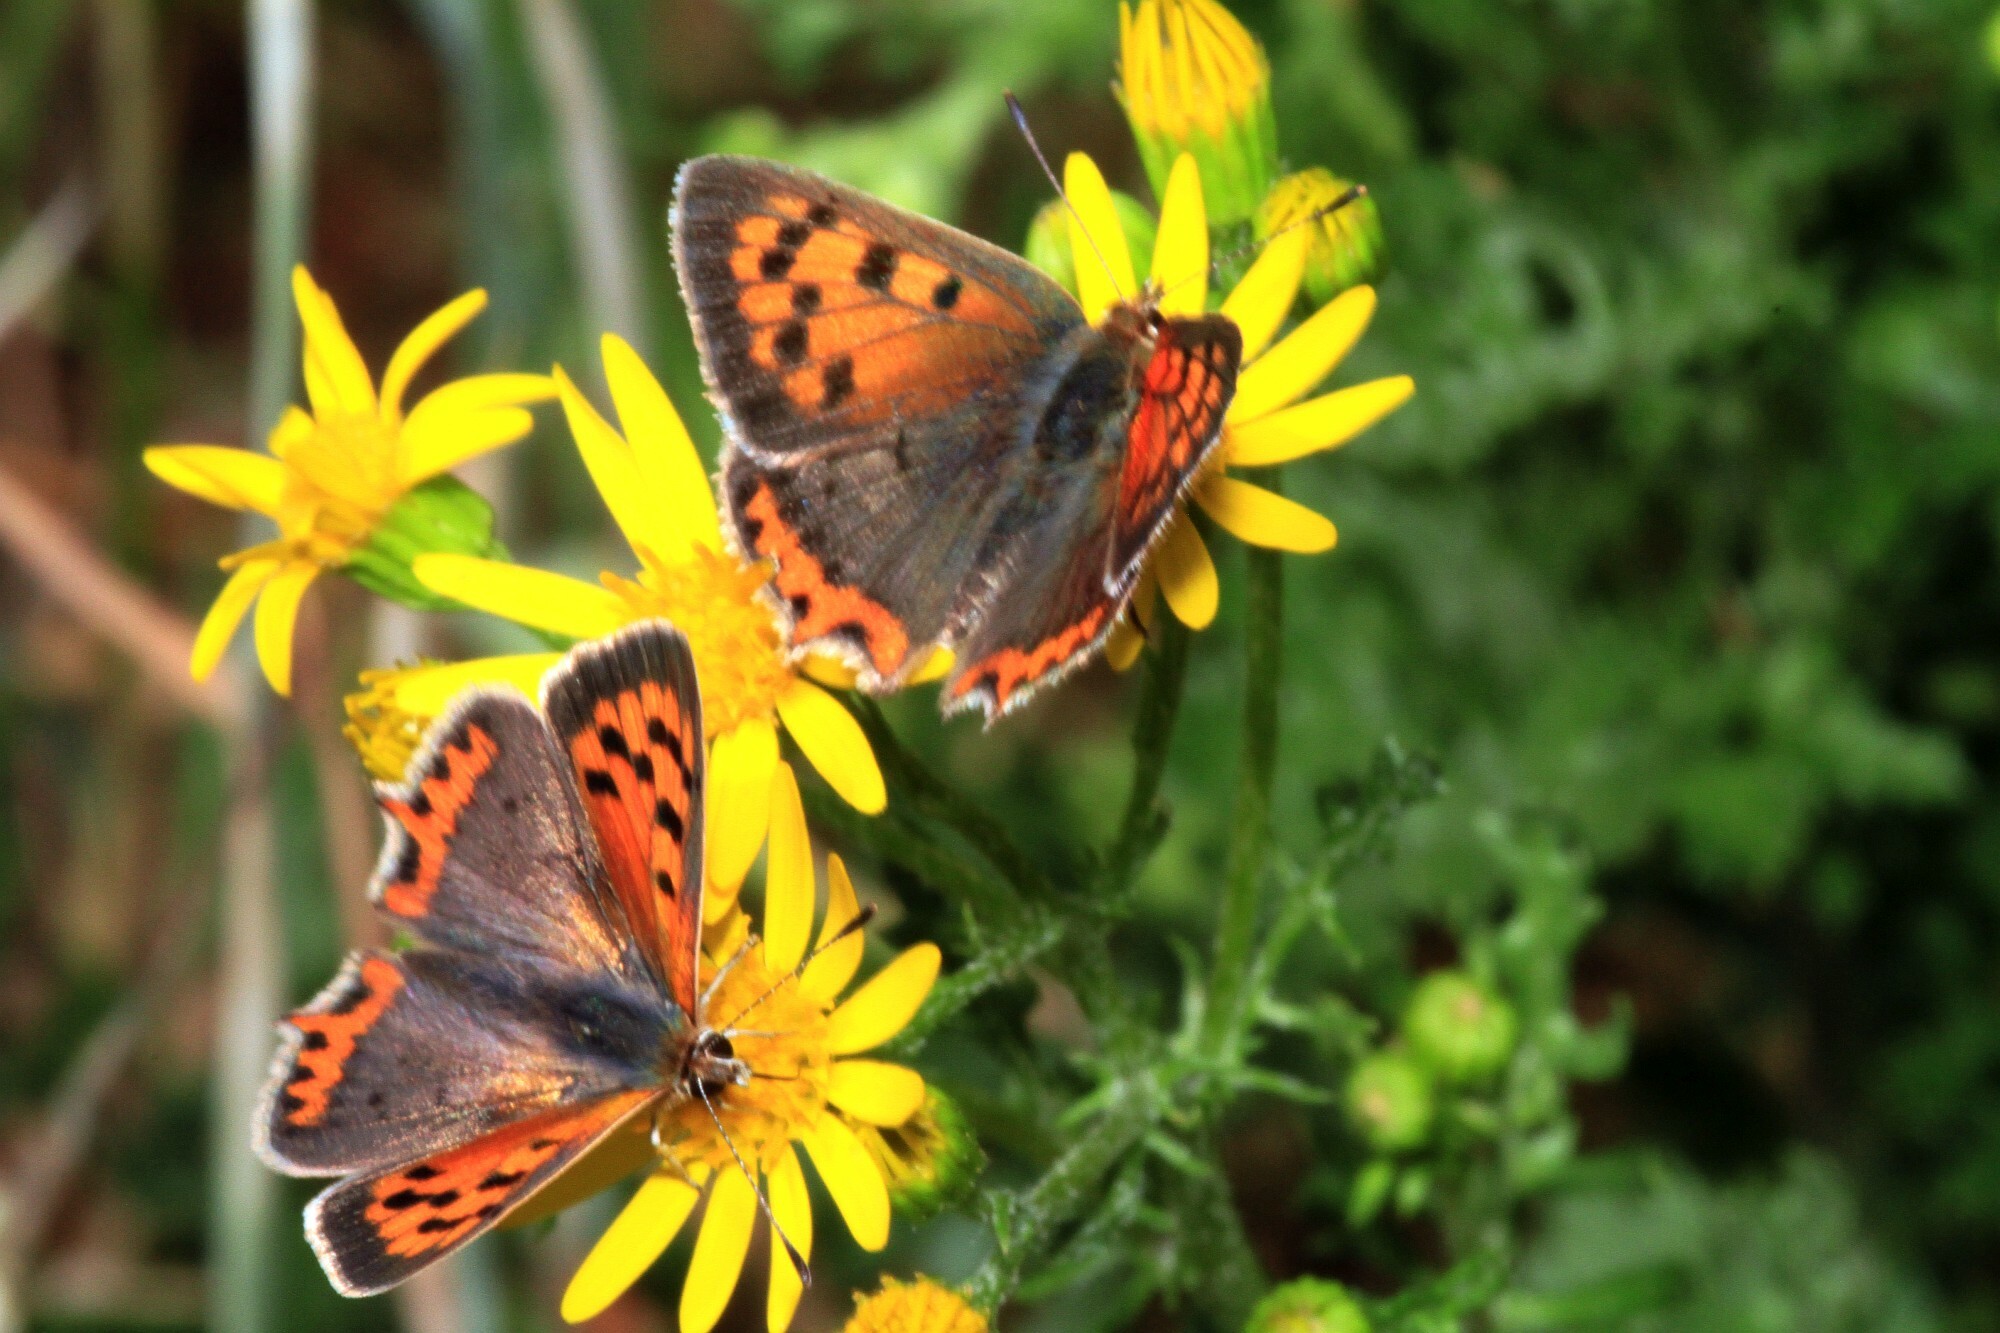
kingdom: Animalia
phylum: Arthropoda
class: Insecta
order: Lepidoptera
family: Lycaenidae
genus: Lycaena
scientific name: Lycaena phlaeas
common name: Small copper
